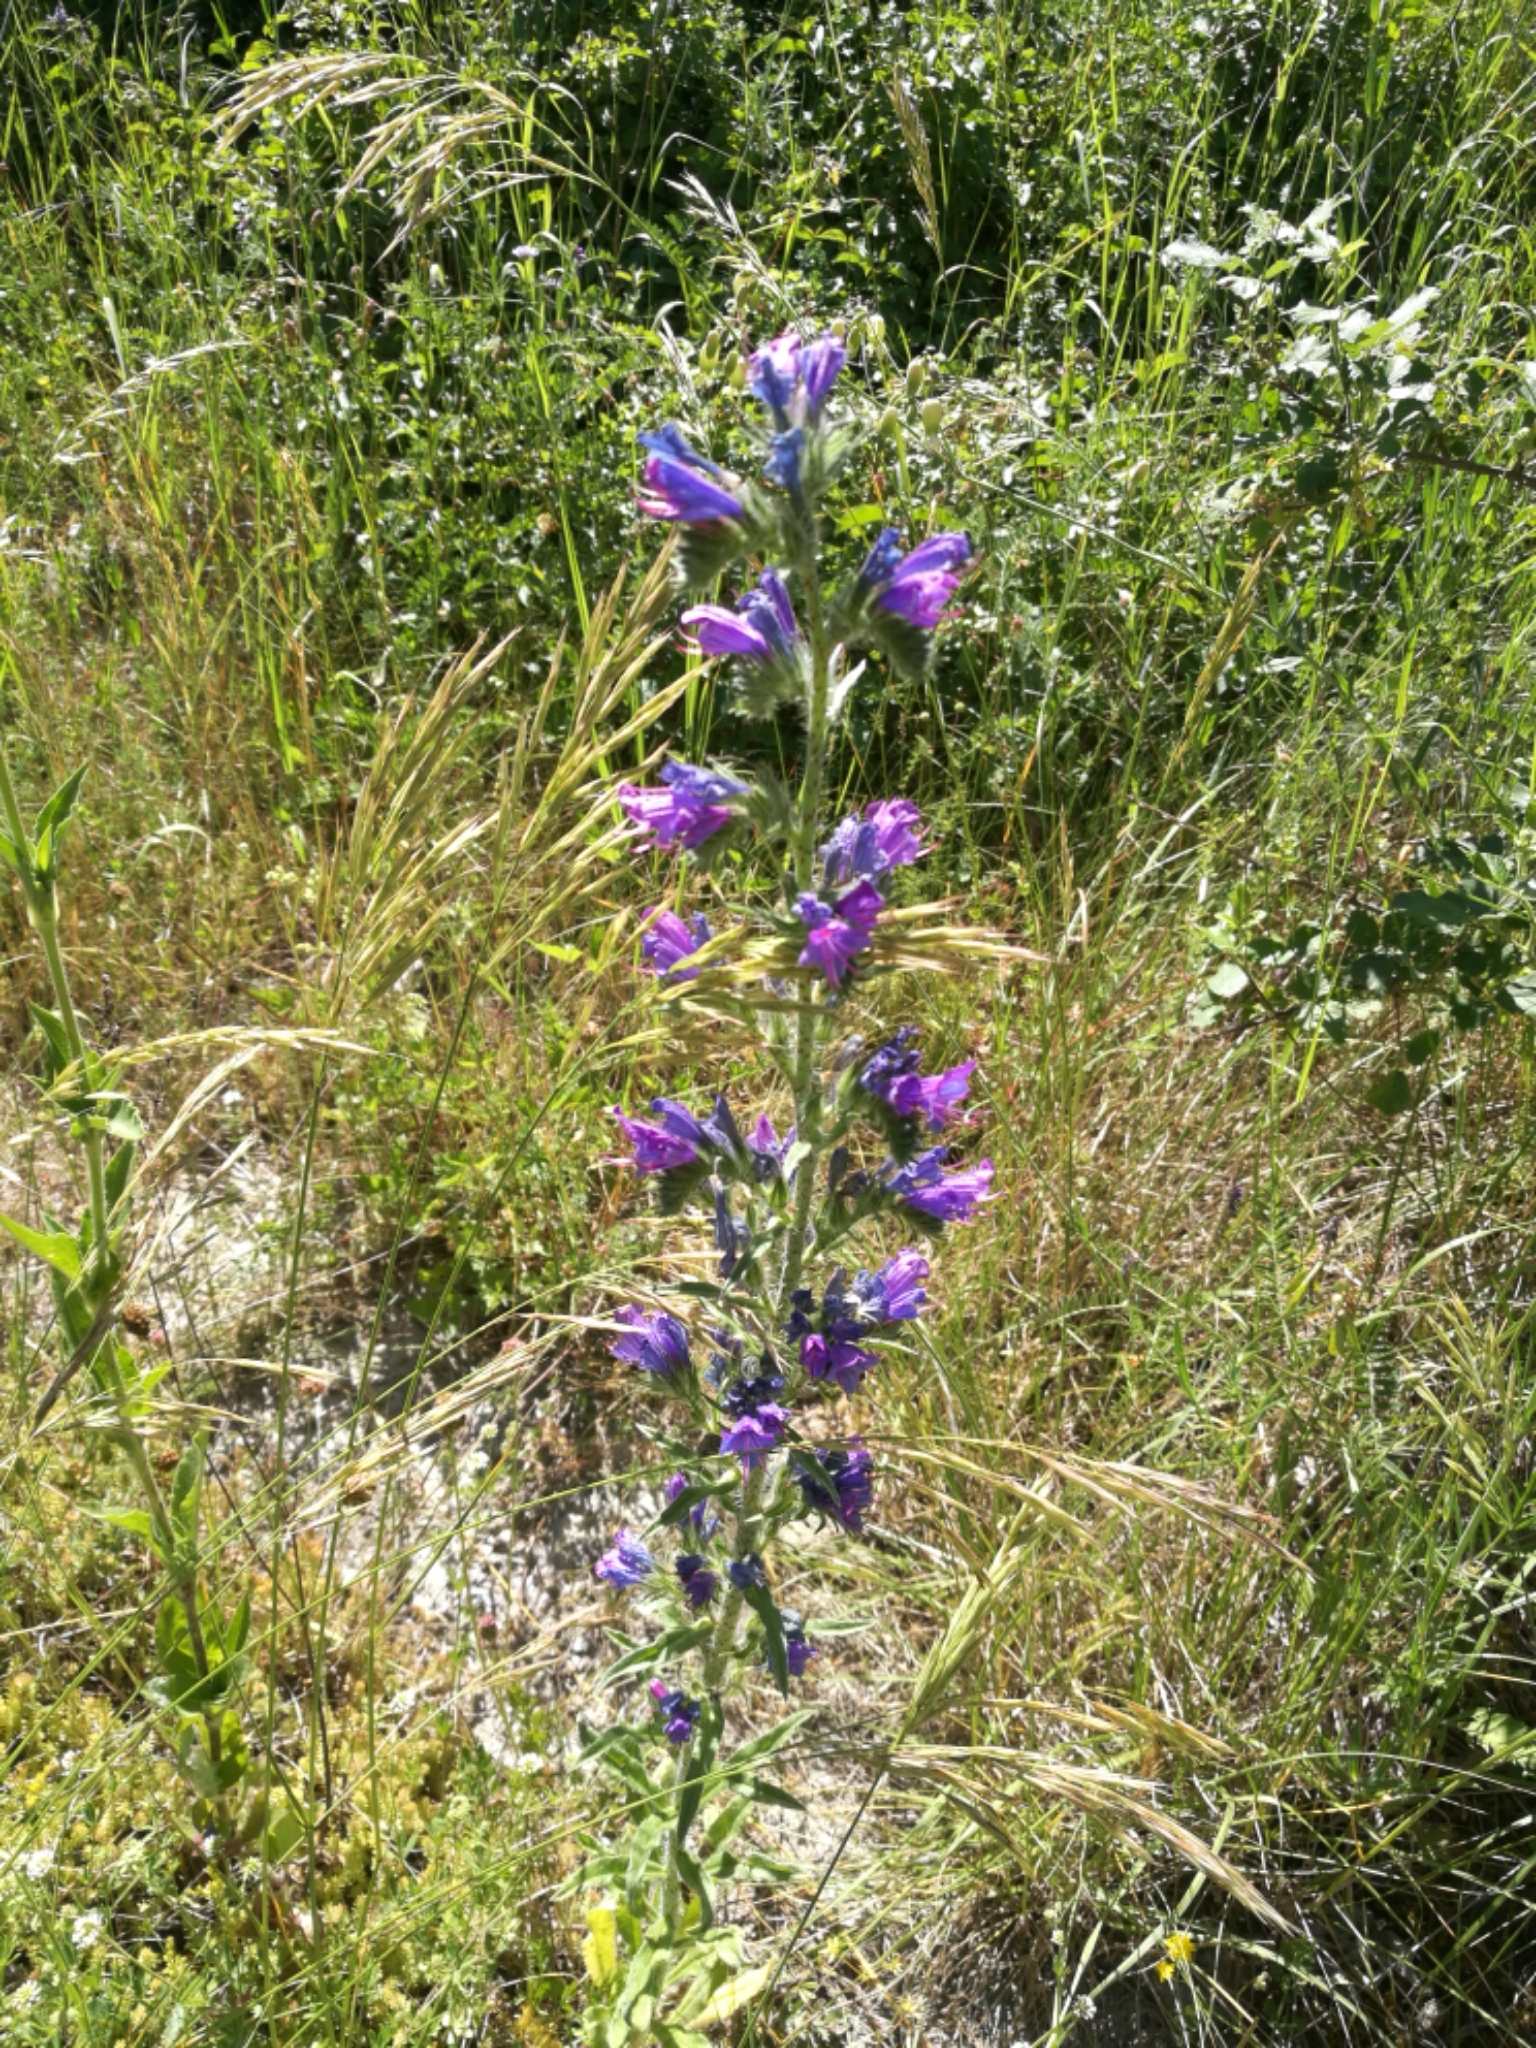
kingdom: Plantae
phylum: Tracheophyta
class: Magnoliopsida
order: Boraginales
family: Boraginaceae
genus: Echium
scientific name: Echium vulgare
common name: Common viper's bugloss
